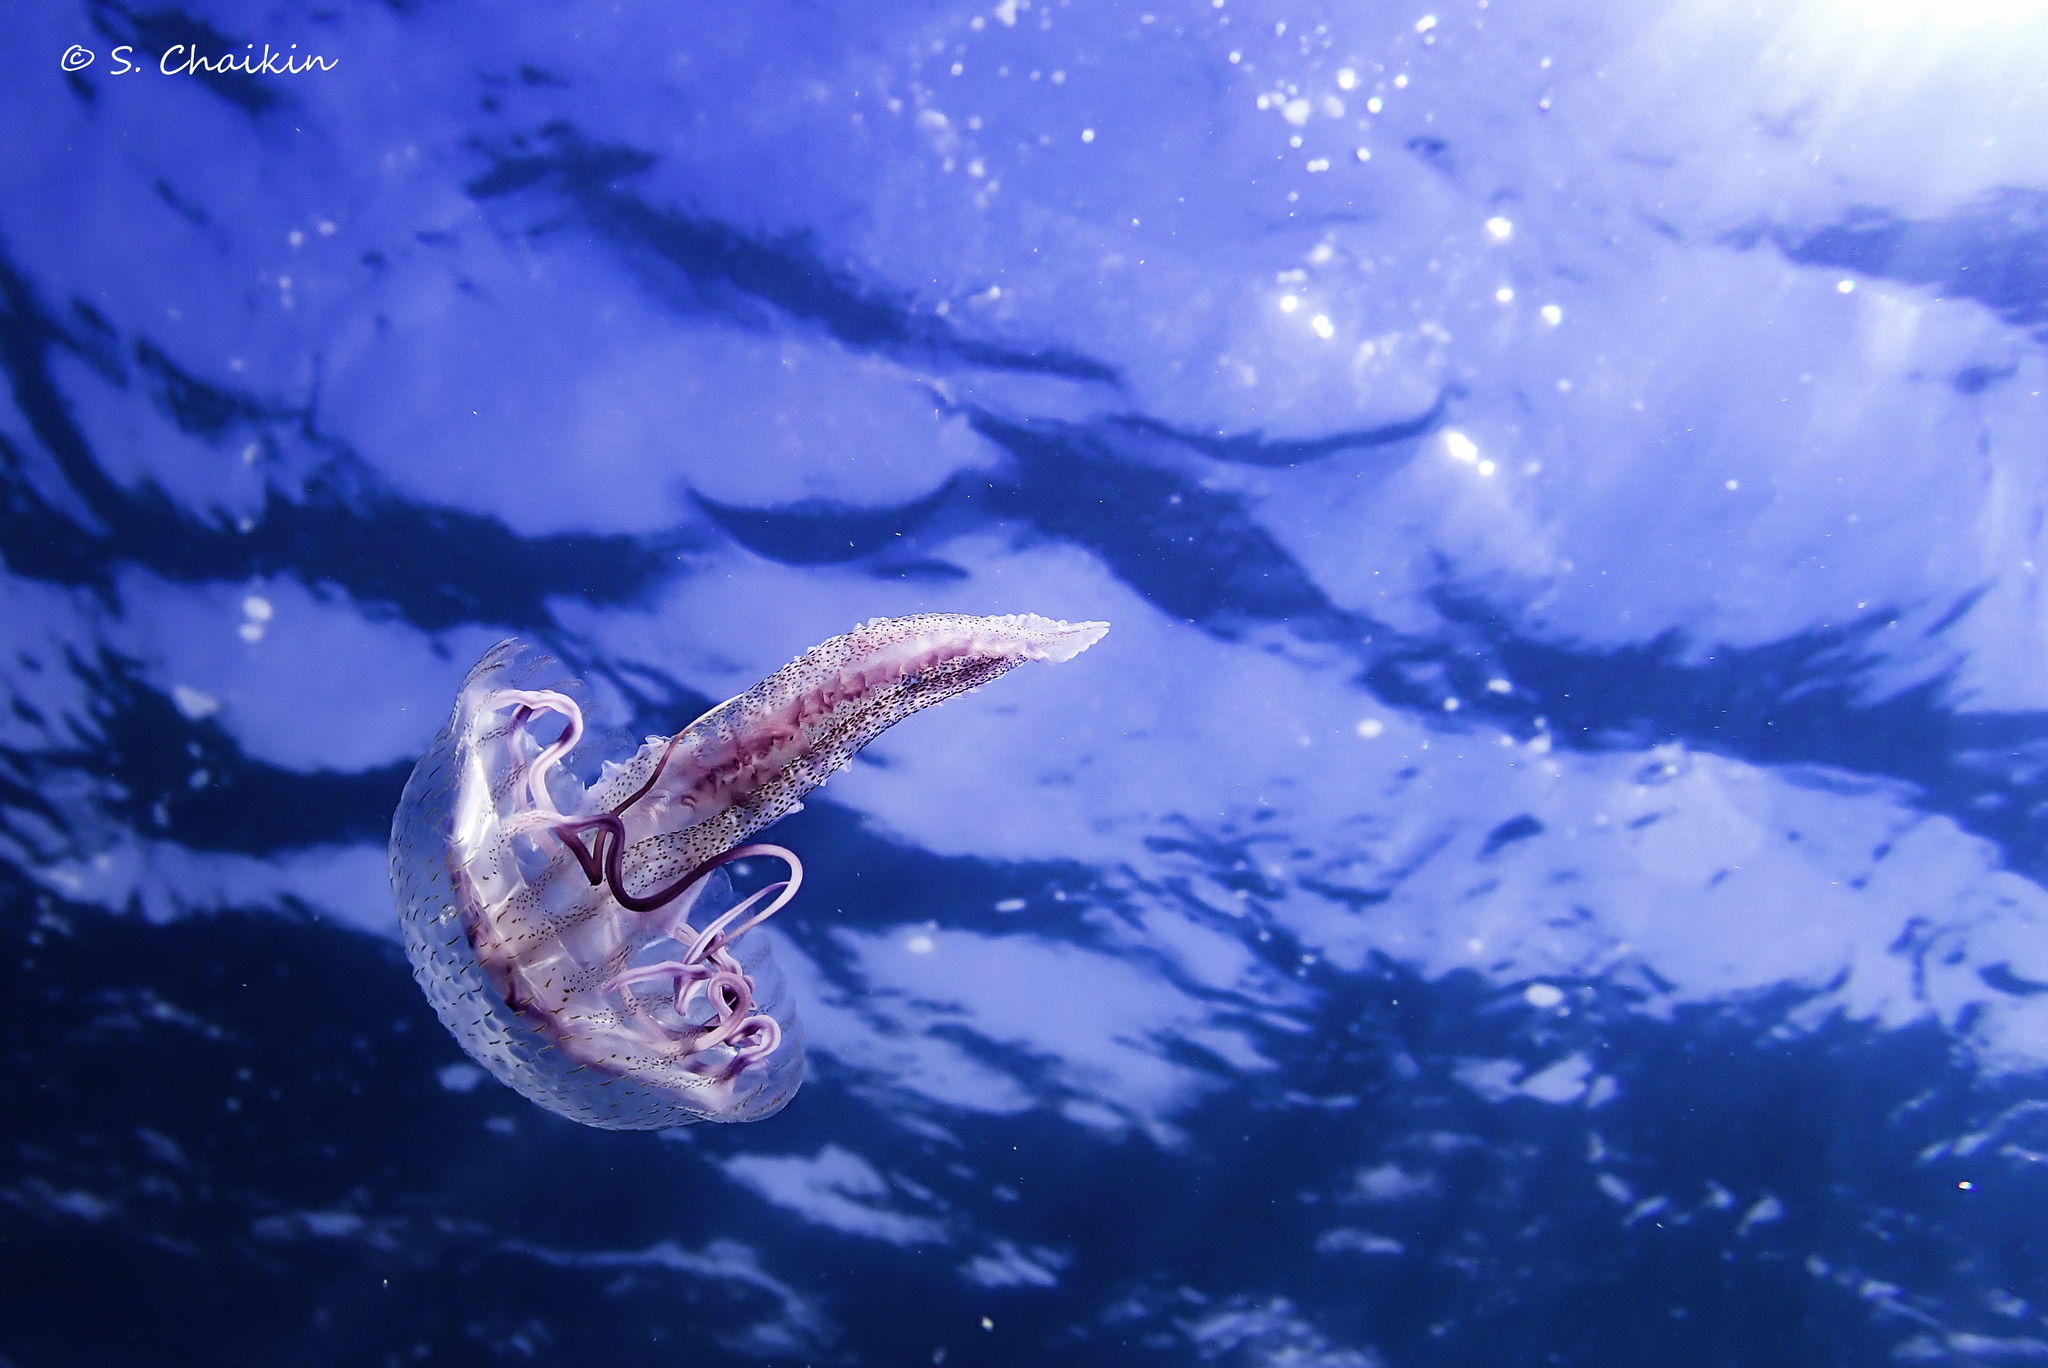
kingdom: Animalia
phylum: Cnidaria
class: Scyphozoa
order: Semaeostomeae
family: Pelagiidae
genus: Pelagia
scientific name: Pelagia noctiluca
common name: Mauve stinger
